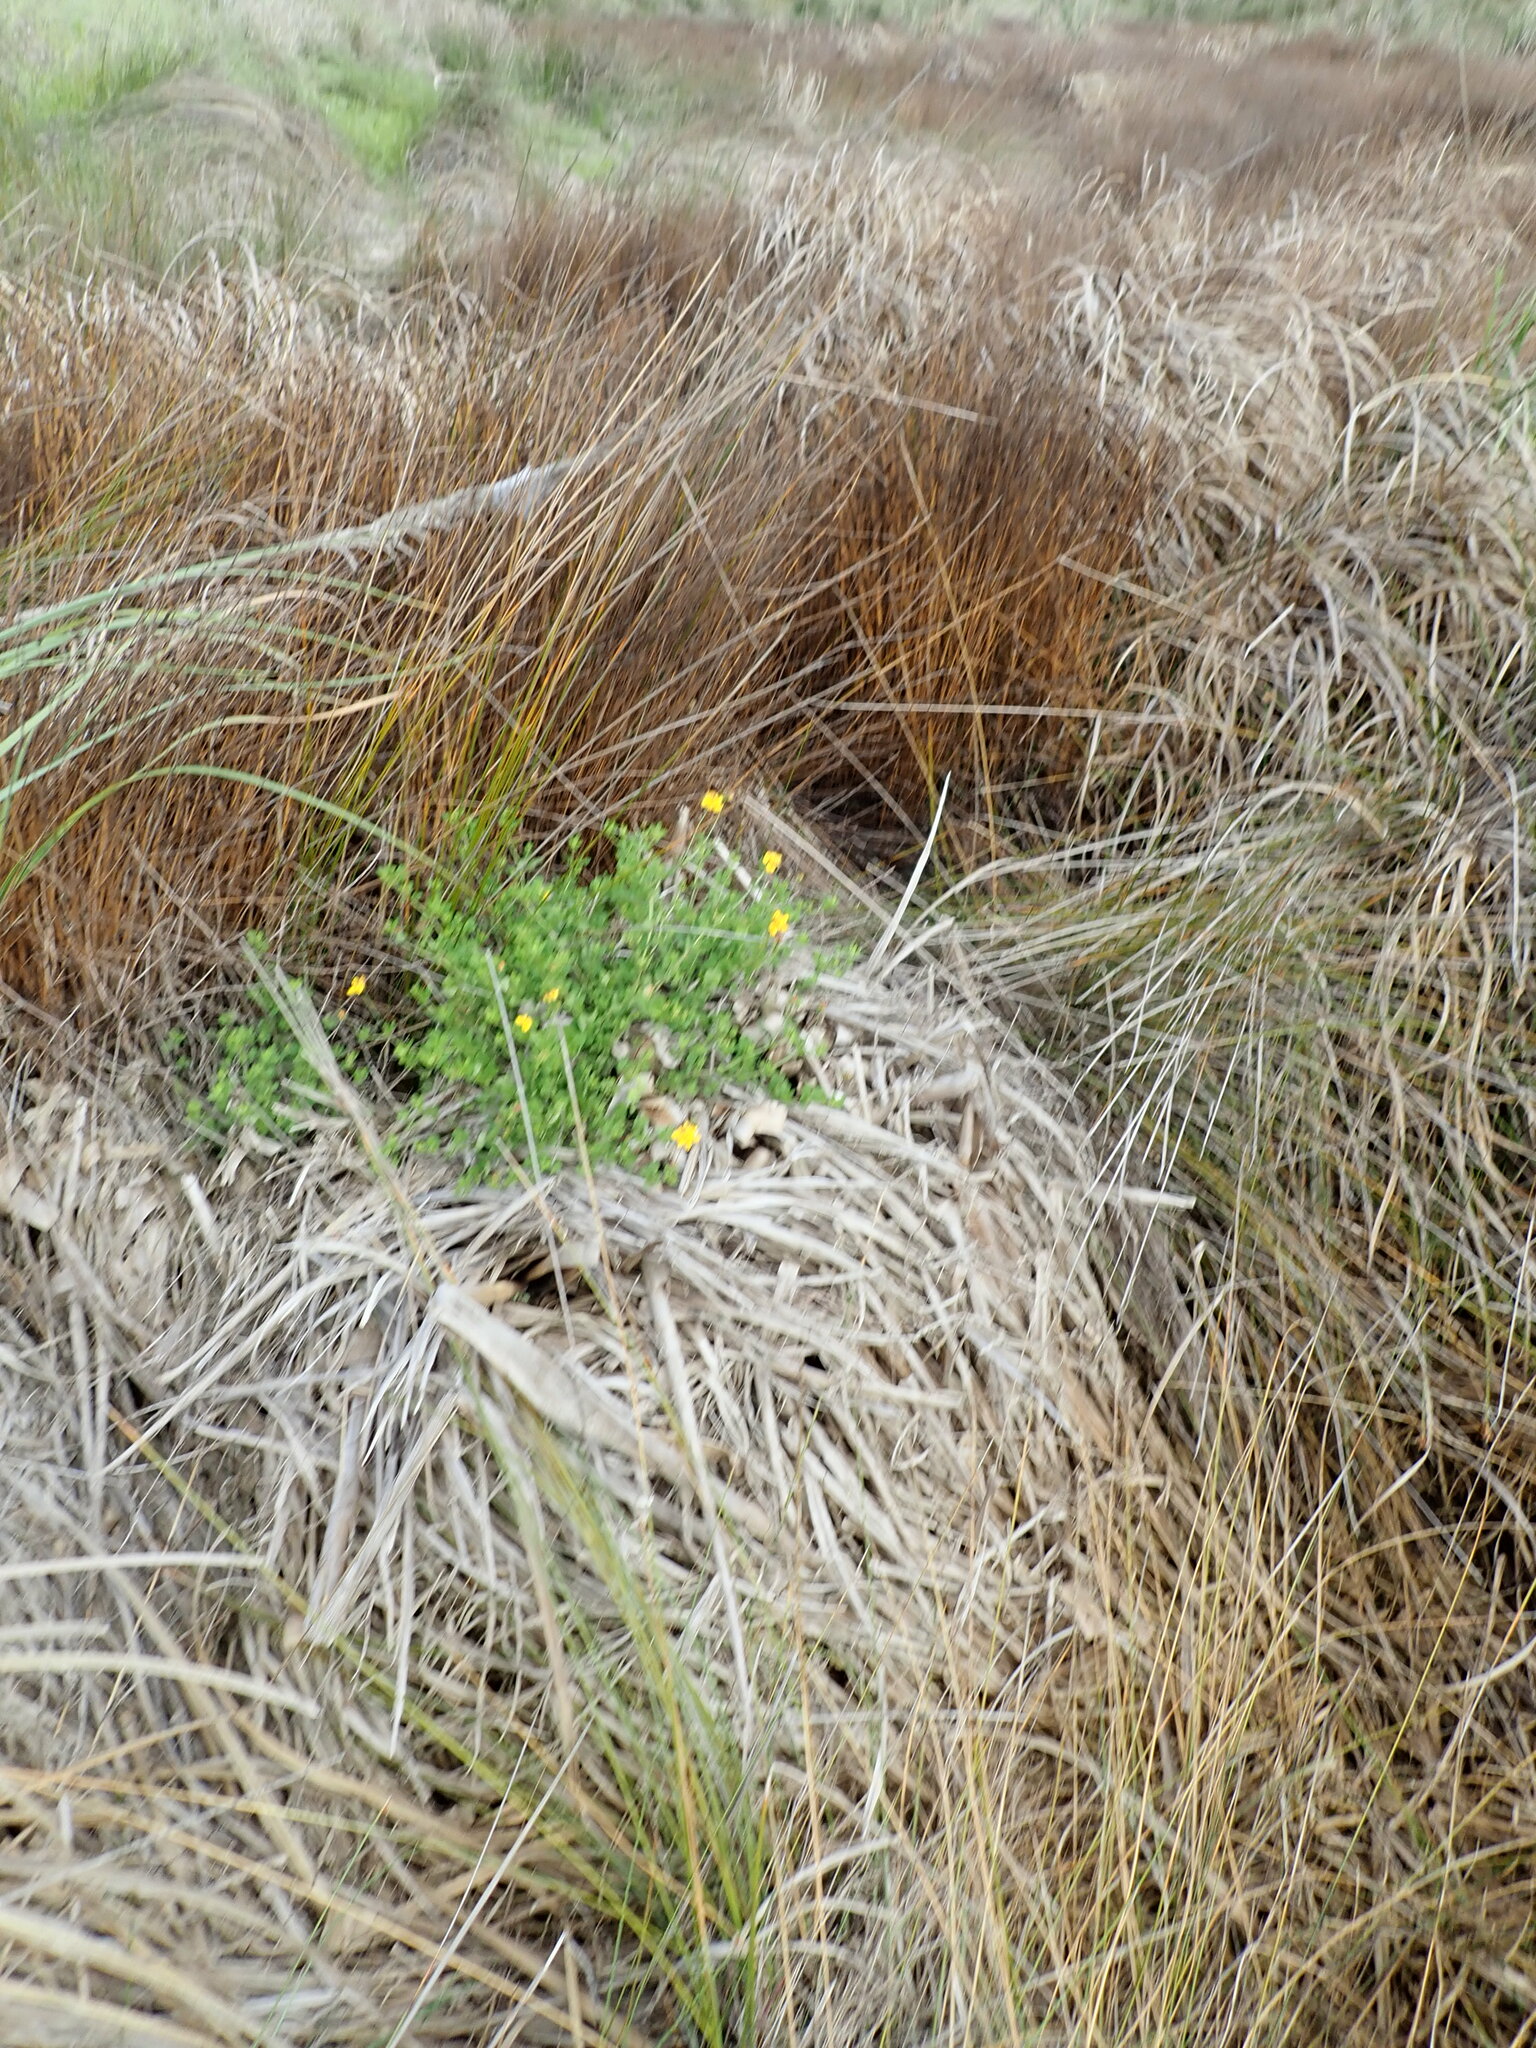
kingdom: Plantae
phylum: Tracheophyta
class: Magnoliopsida
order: Fabales
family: Fabaceae
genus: Lotus
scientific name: Lotus pedunculatus
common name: Greater birdsfoot-trefoil
